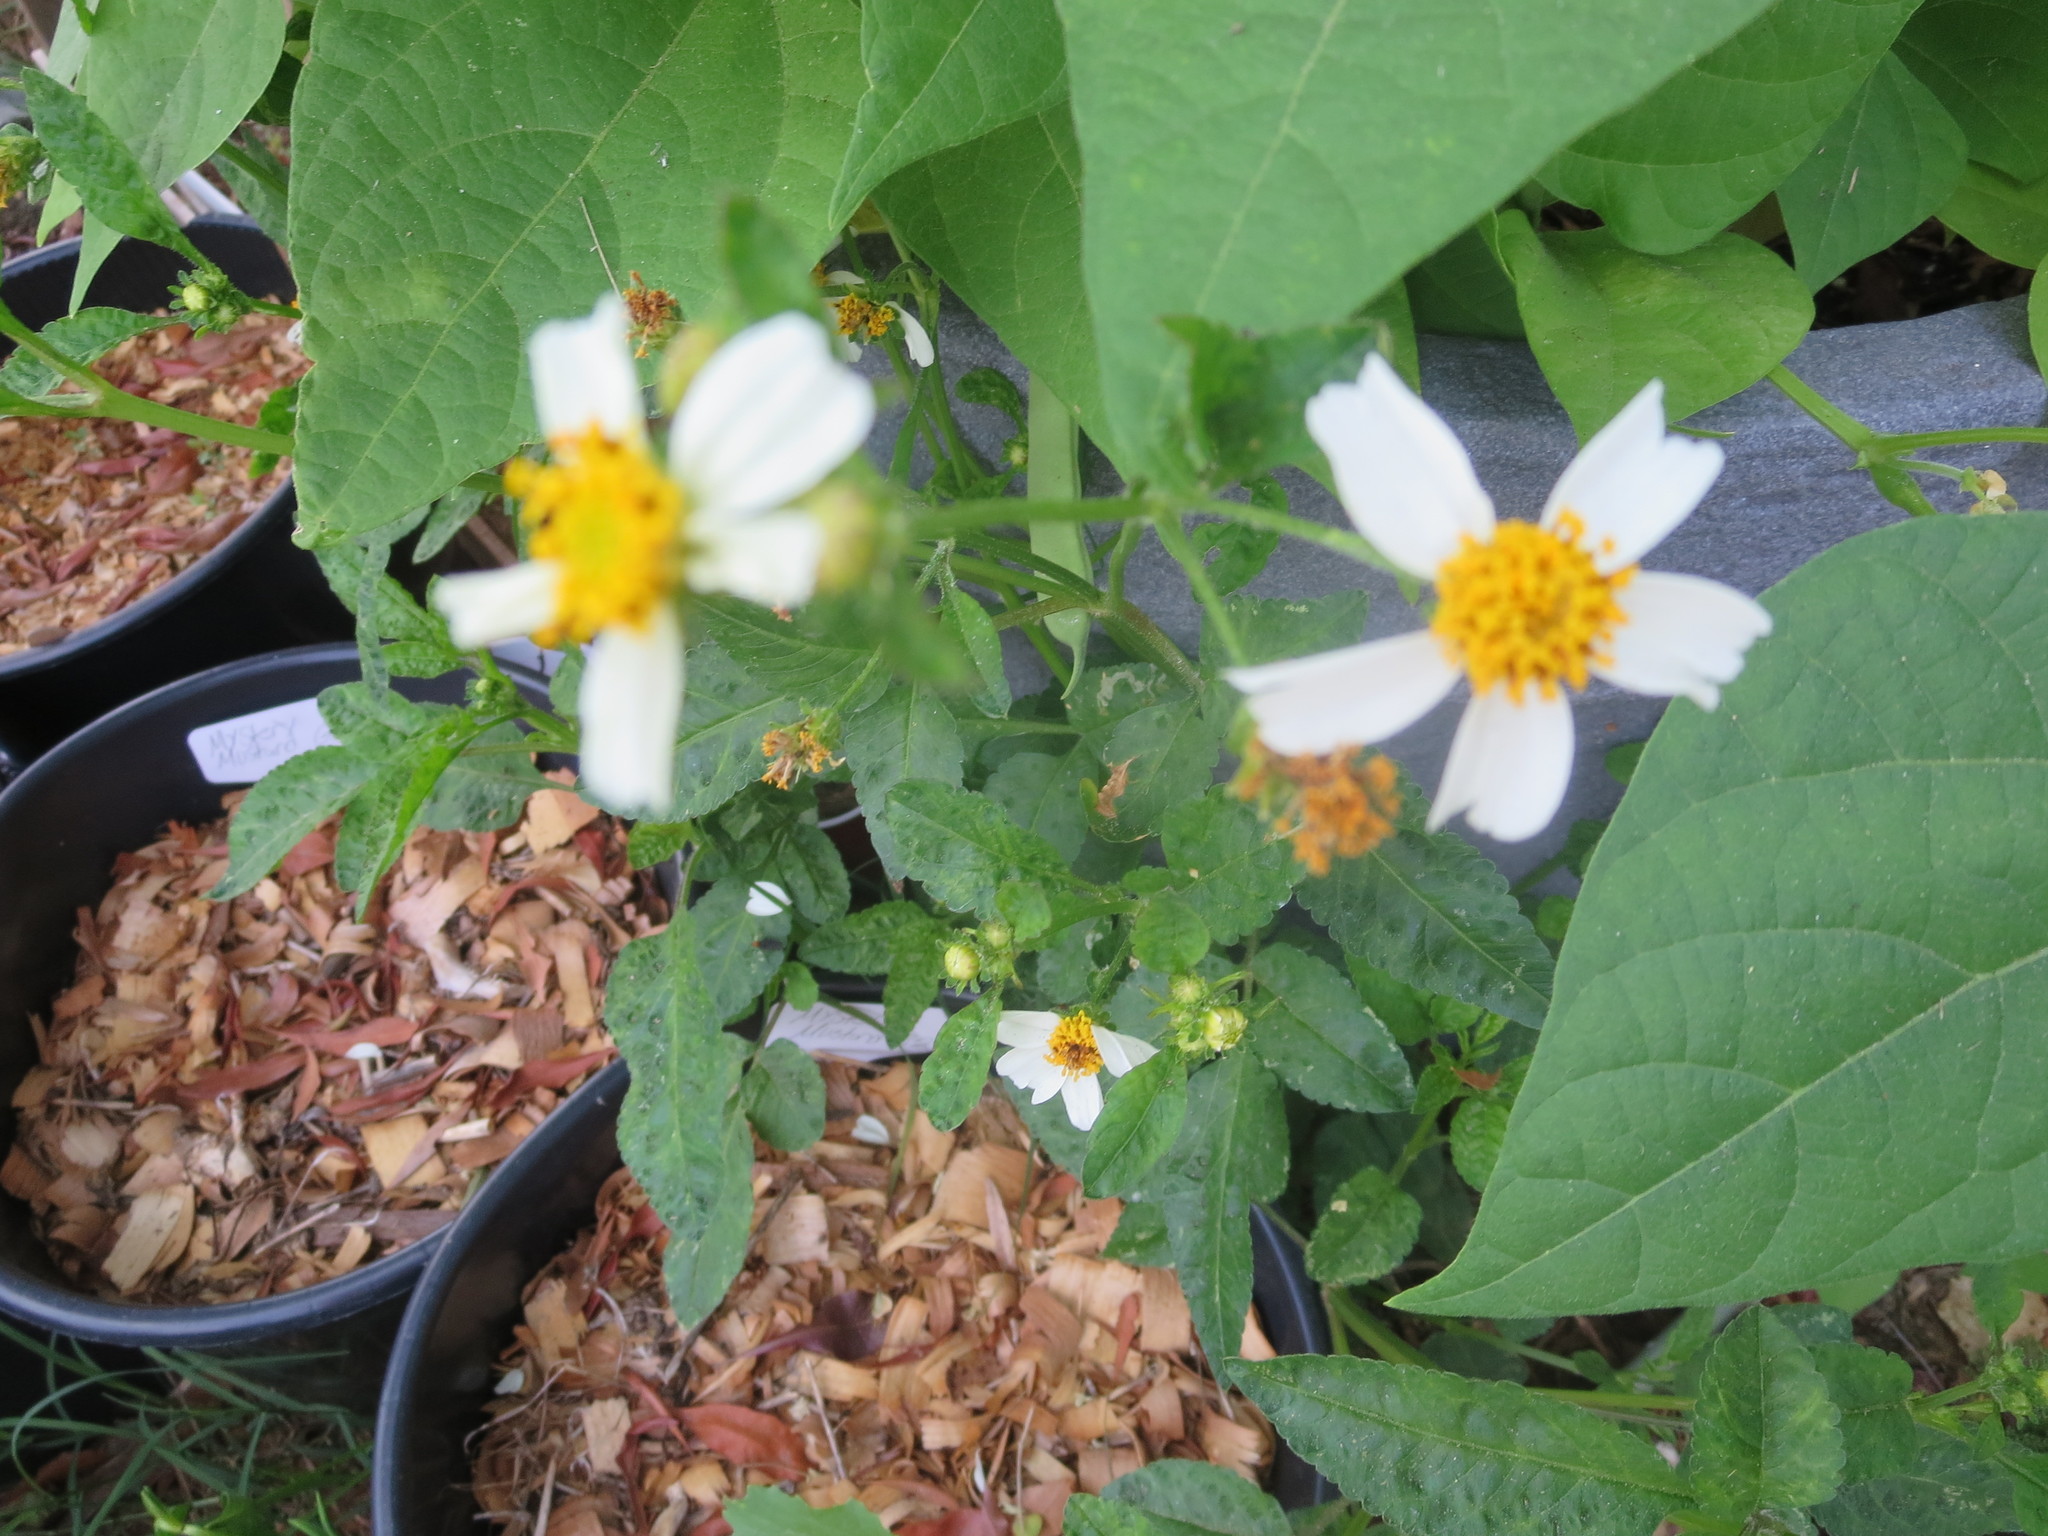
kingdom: Plantae
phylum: Tracheophyta
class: Magnoliopsida
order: Asterales
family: Asteraceae
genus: Bidens
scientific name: Bidens alba
